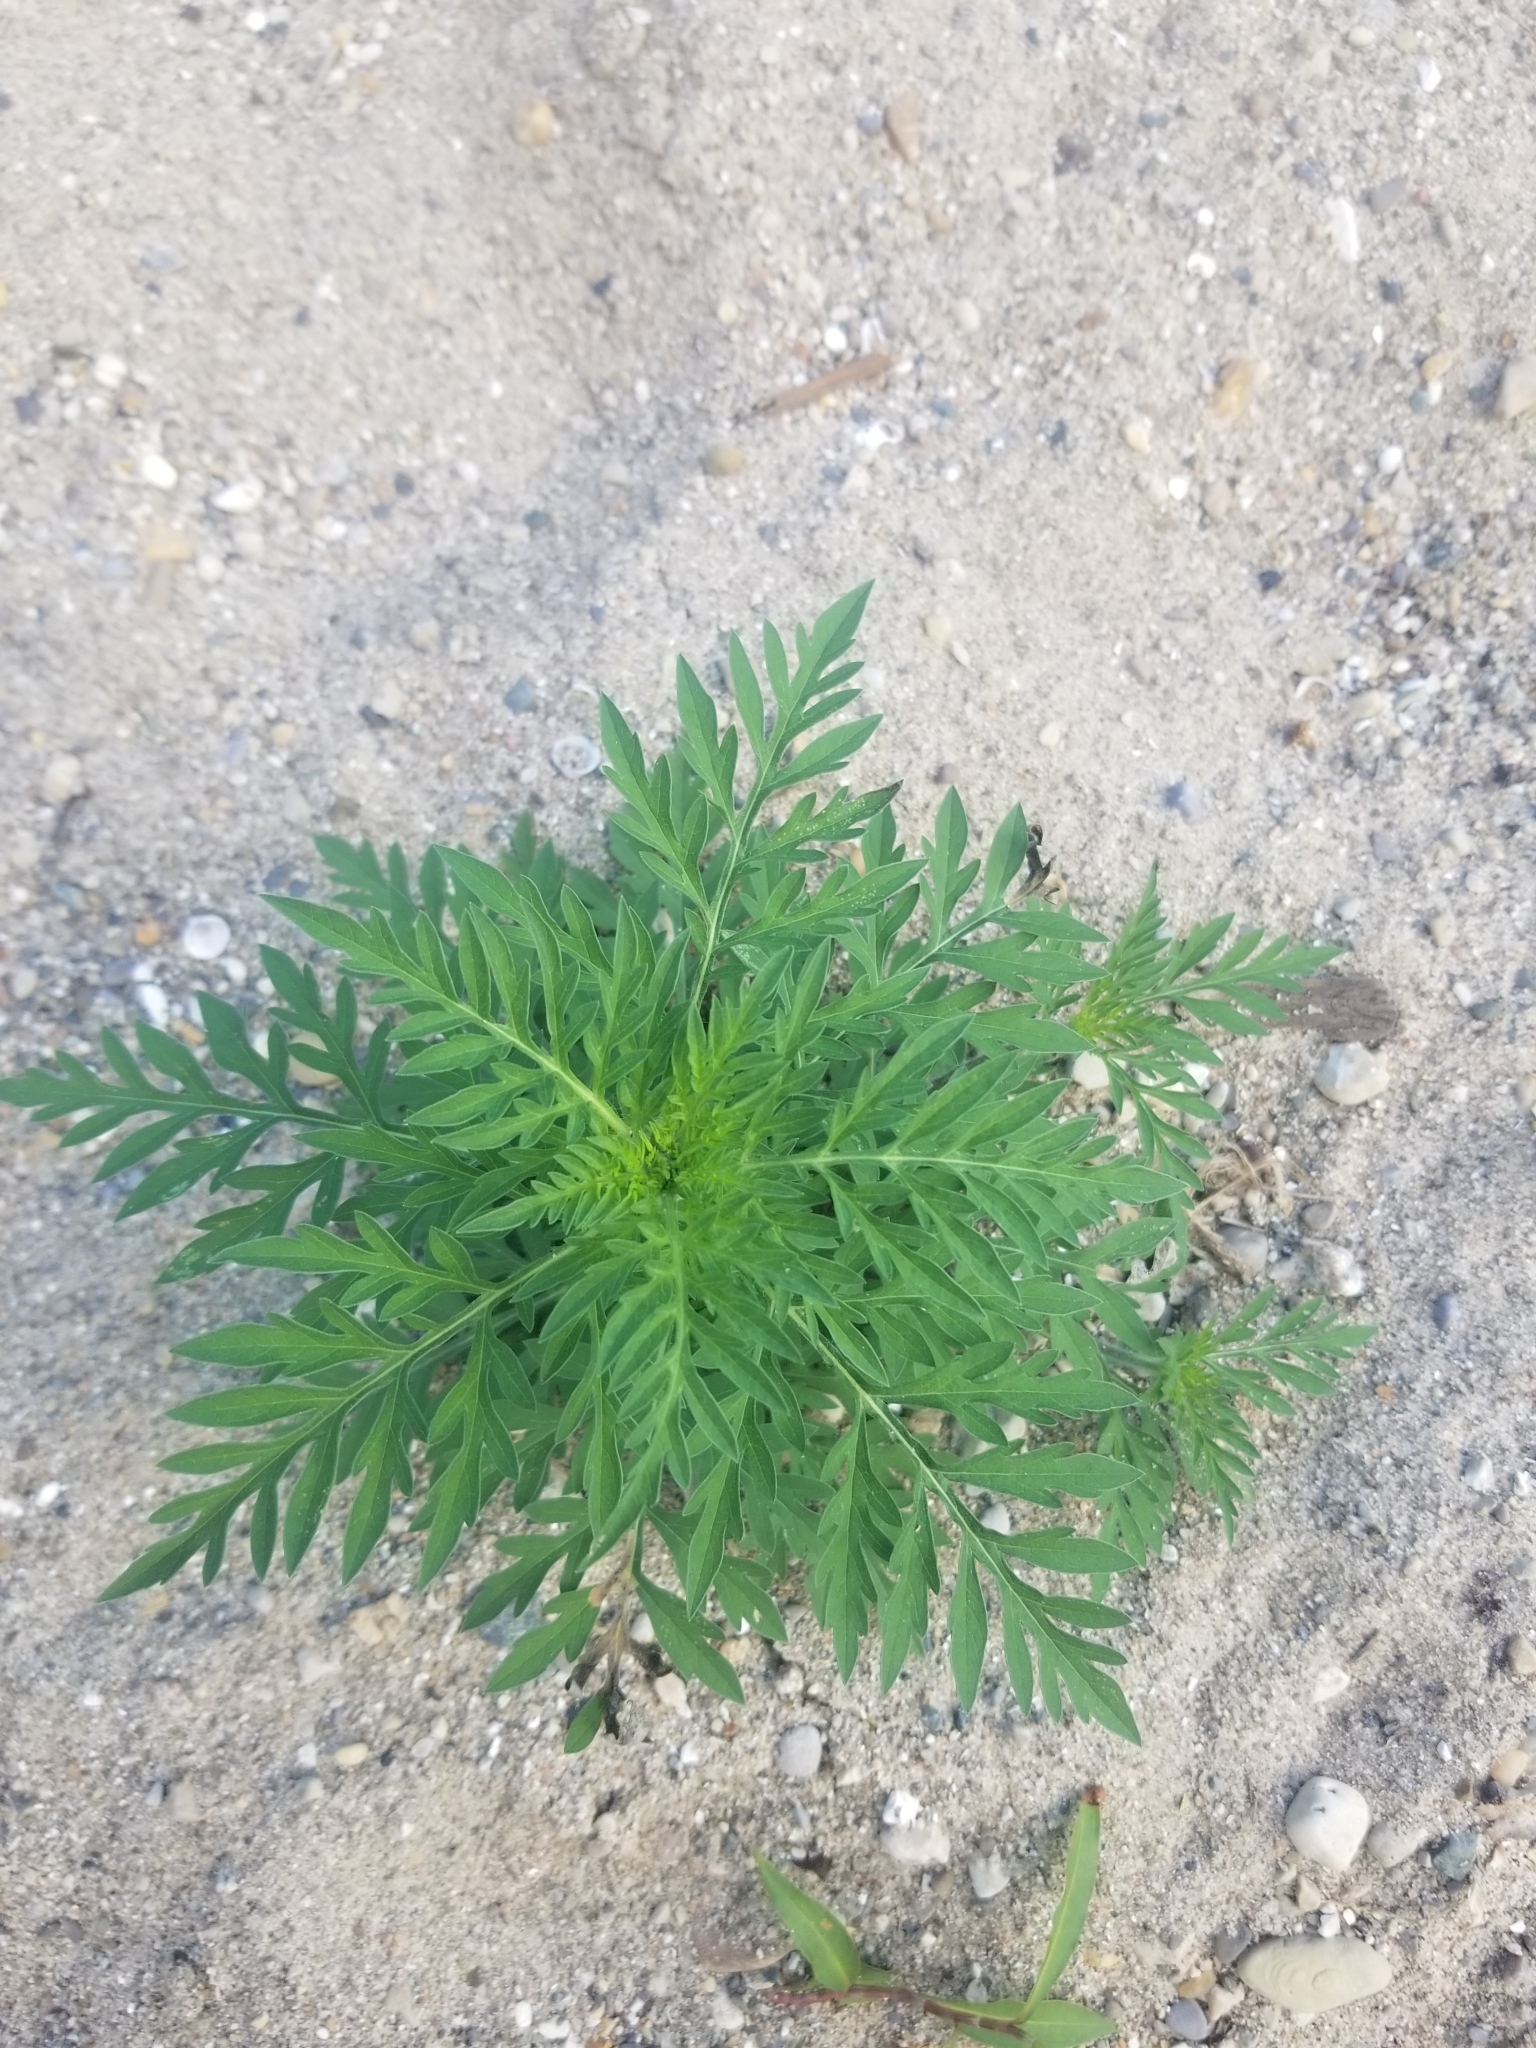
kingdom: Plantae
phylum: Tracheophyta
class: Magnoliopsida
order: Asterales
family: Asteraceae
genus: Ambrosia
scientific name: Ambrosia artemisiifolia
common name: Annual ragweed
